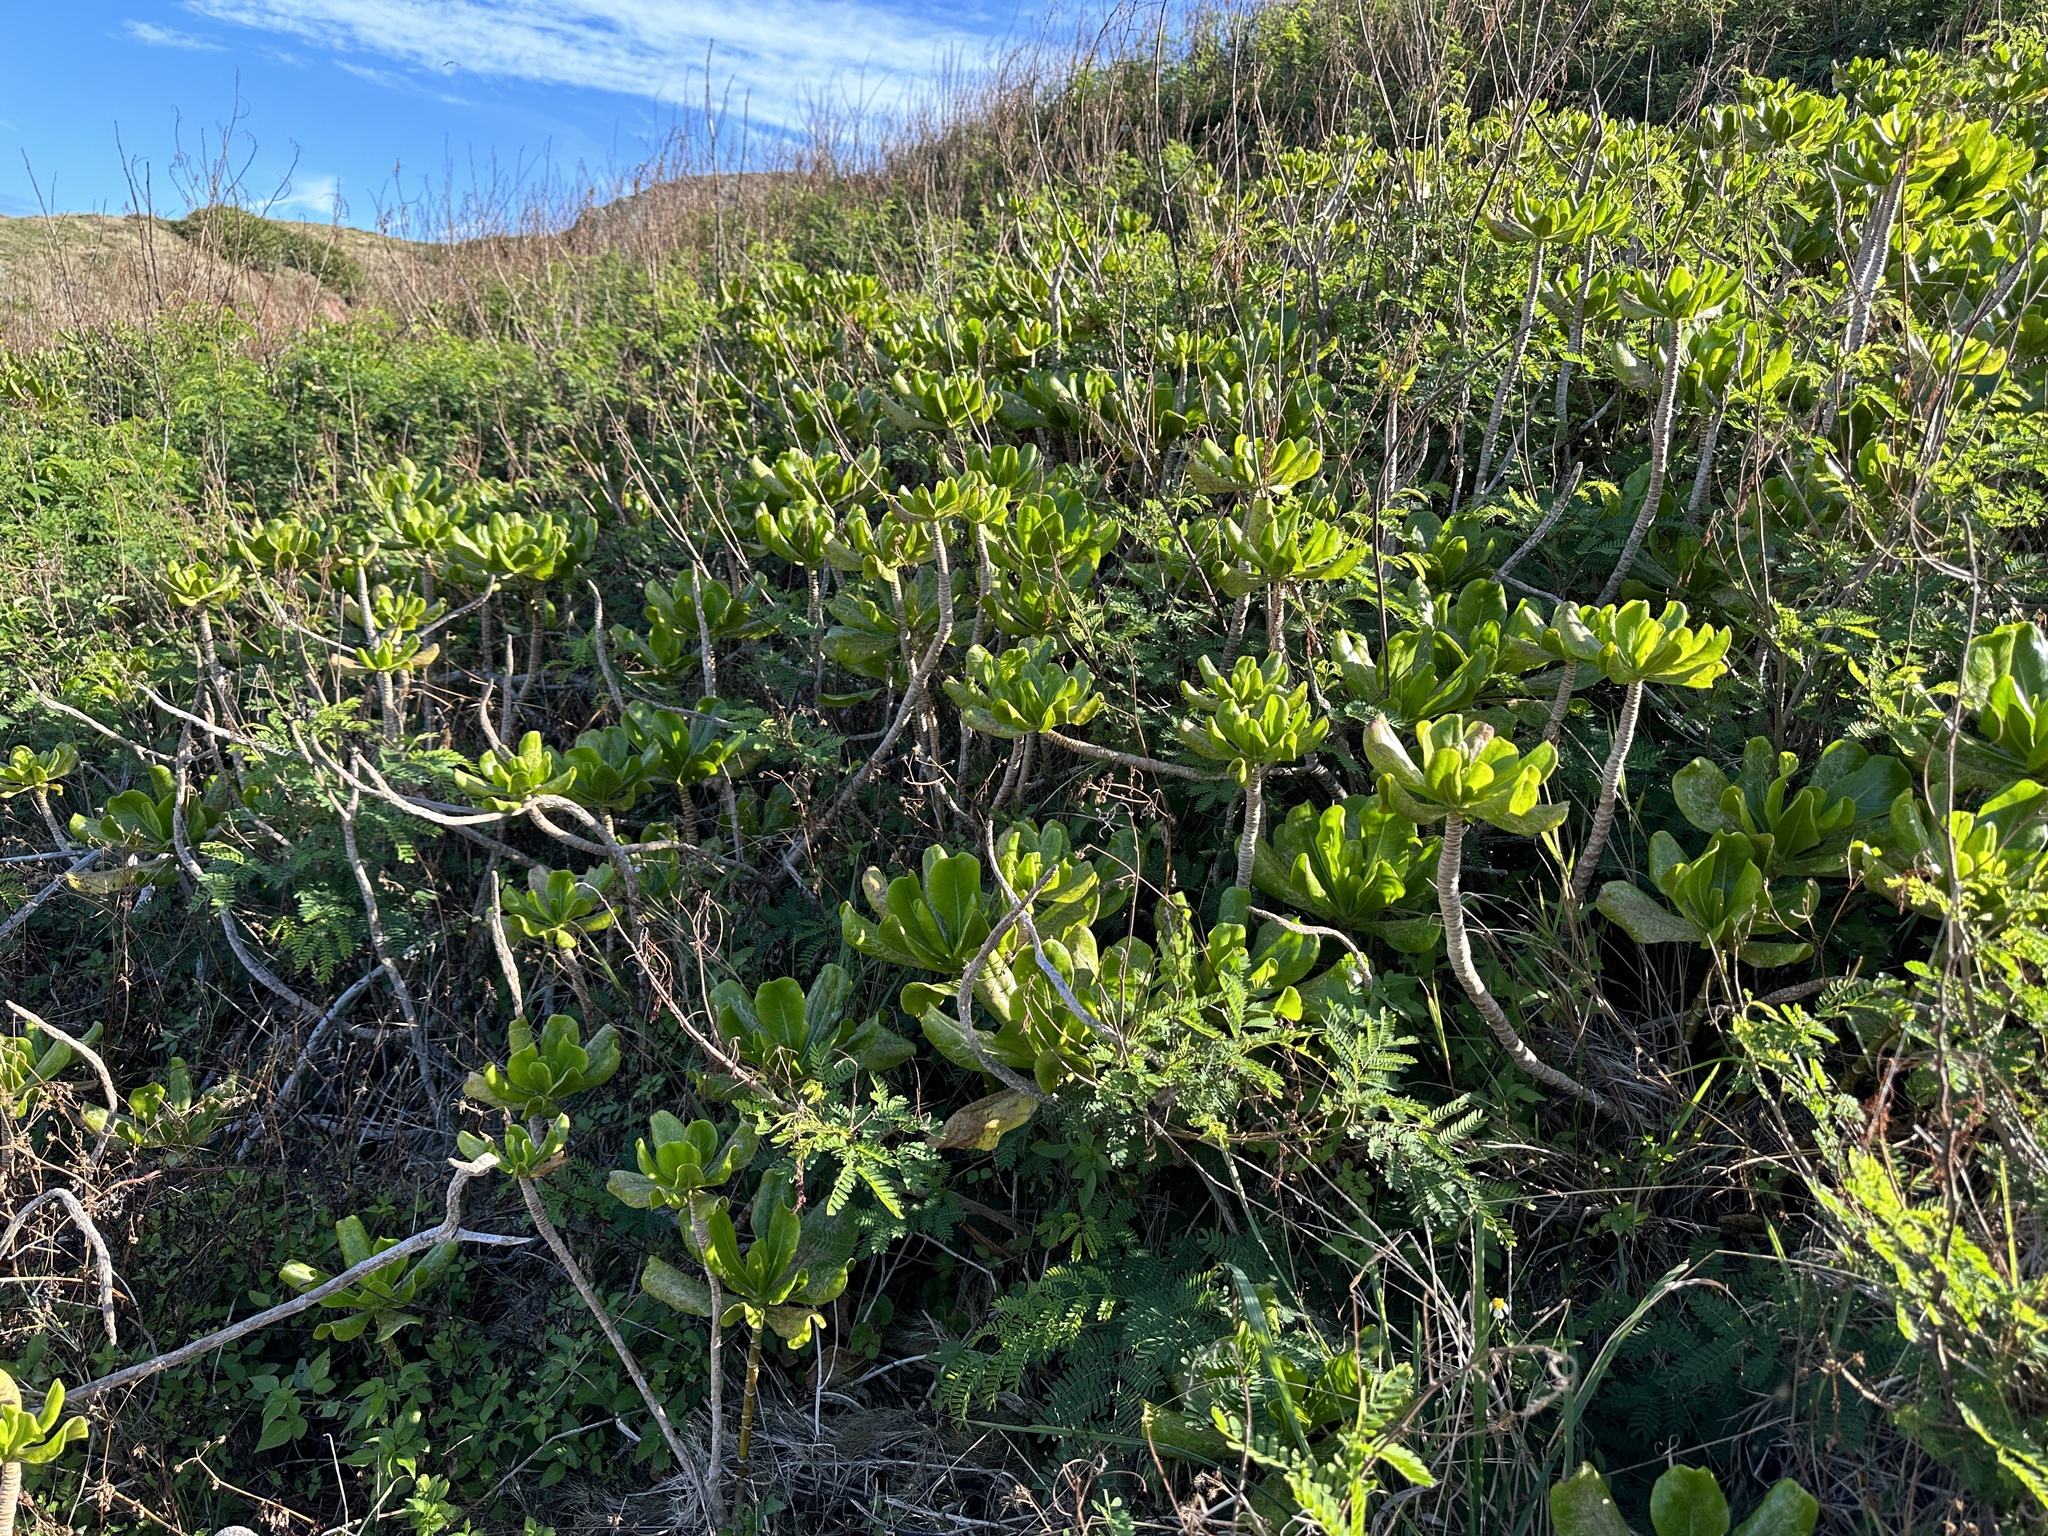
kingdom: Plantae
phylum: Tracheophyta
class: Magnoliopsida
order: Asterales
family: Goodeniaceae
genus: Scaevola
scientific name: Scaevola taccada
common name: Sea lettucetree
